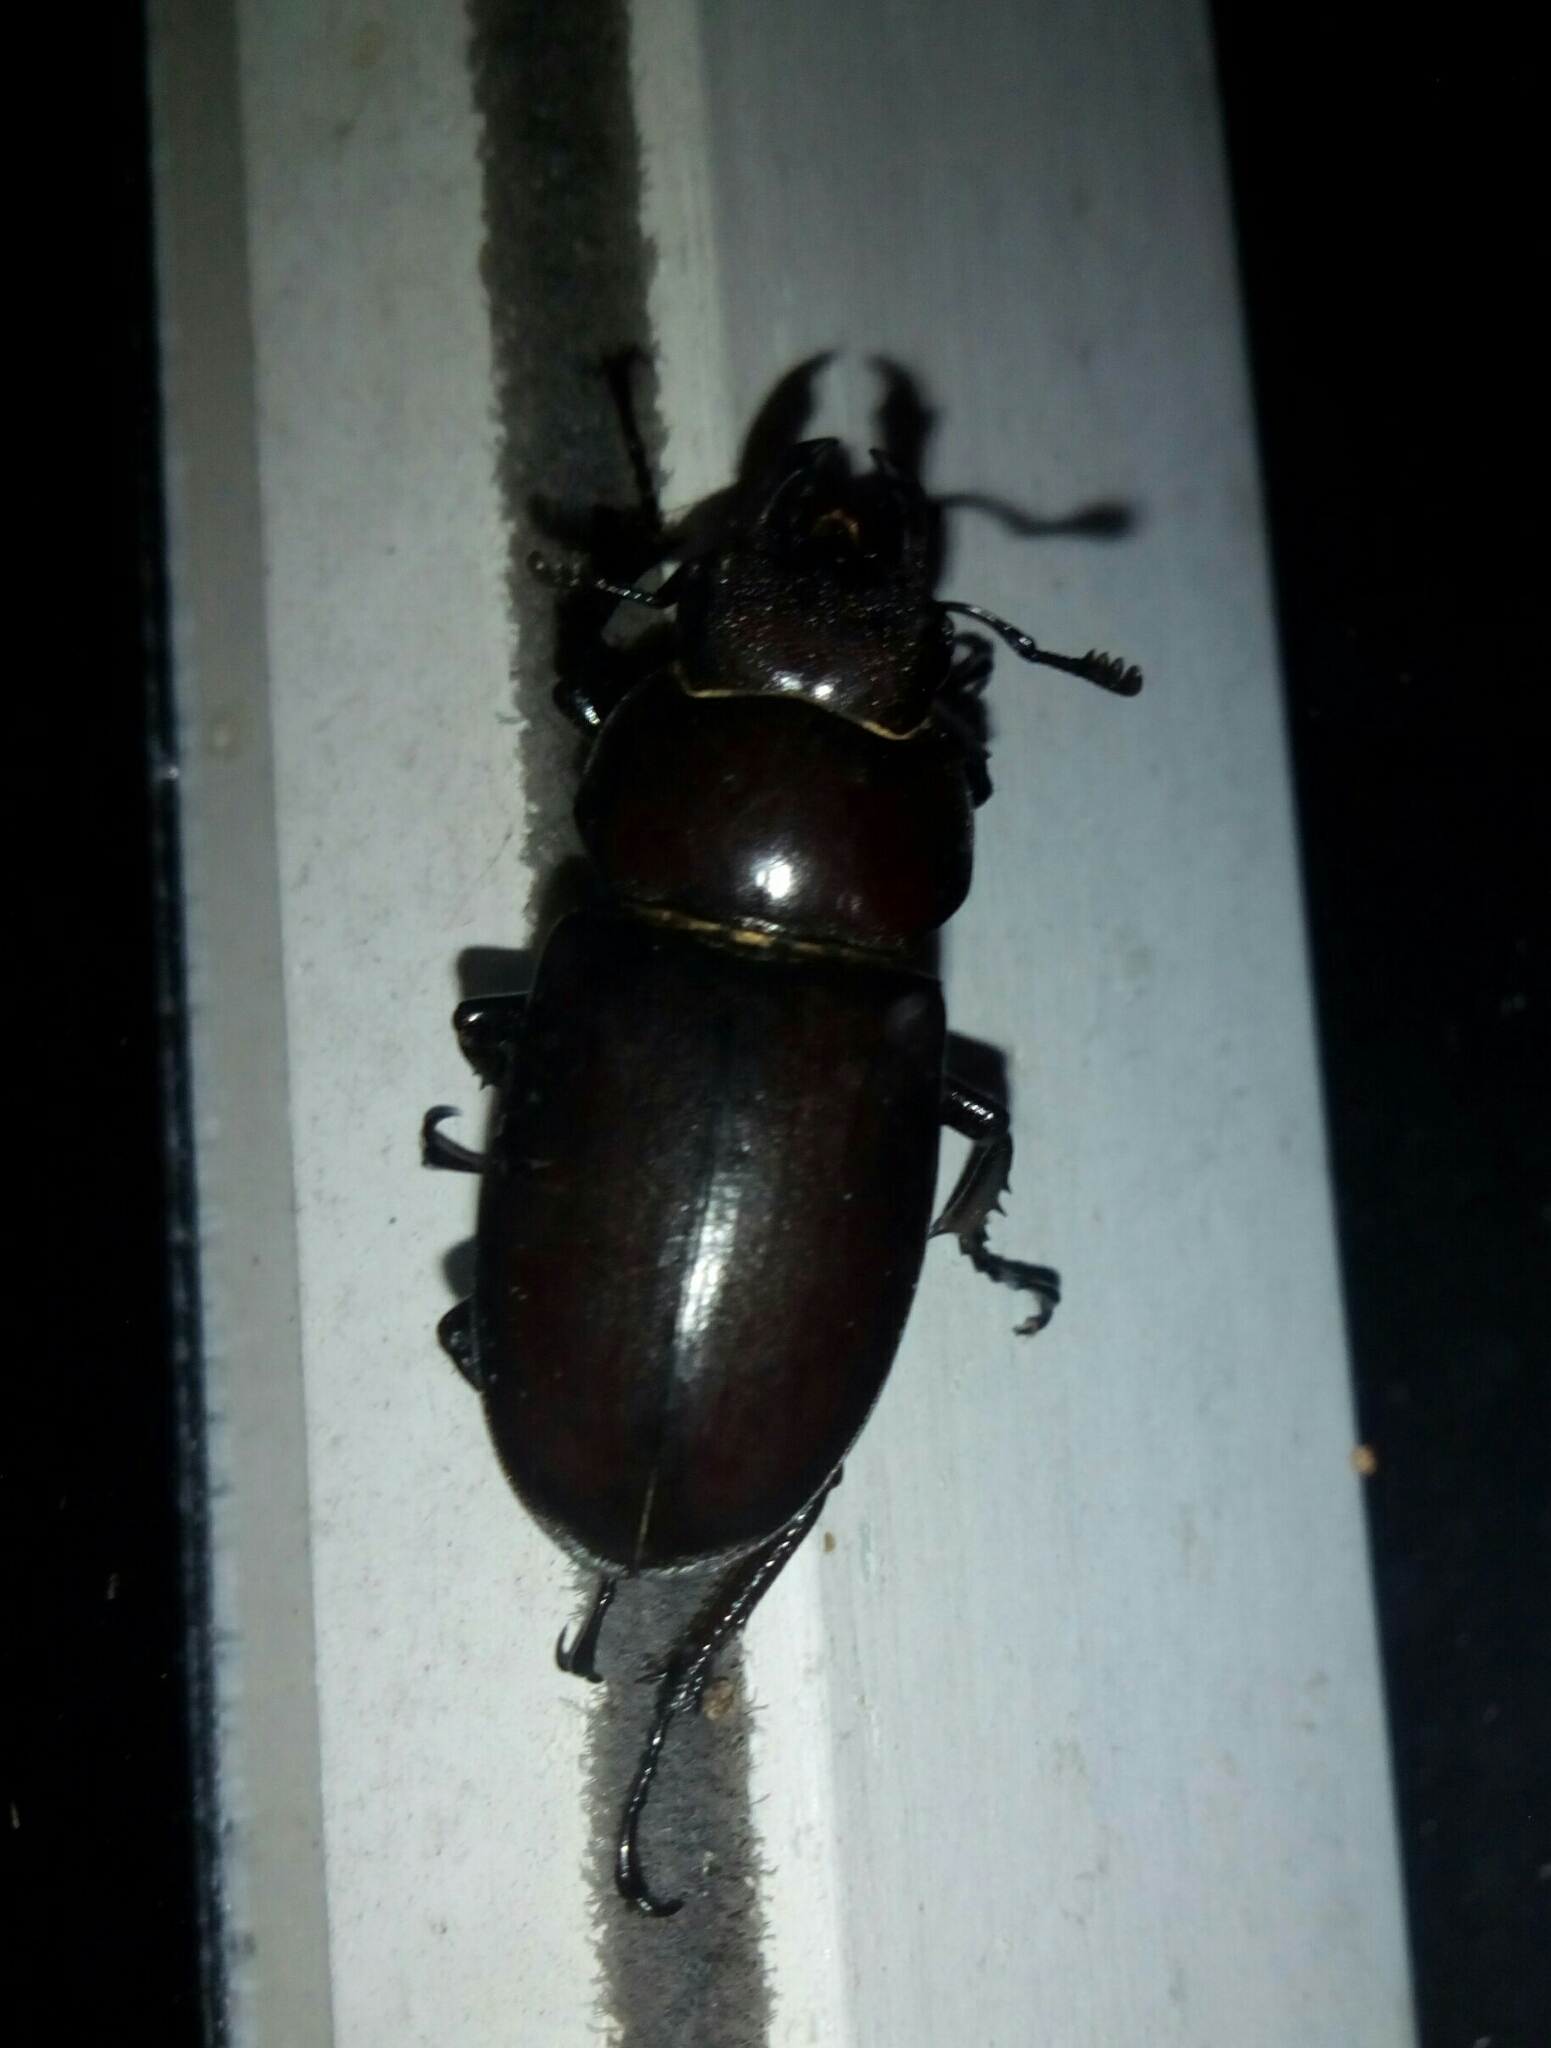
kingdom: Animalia
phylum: Arthropoda
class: Insecta
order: Coleoptera
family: Lucanidae
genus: Lucanus
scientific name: Lucanus elaphus
